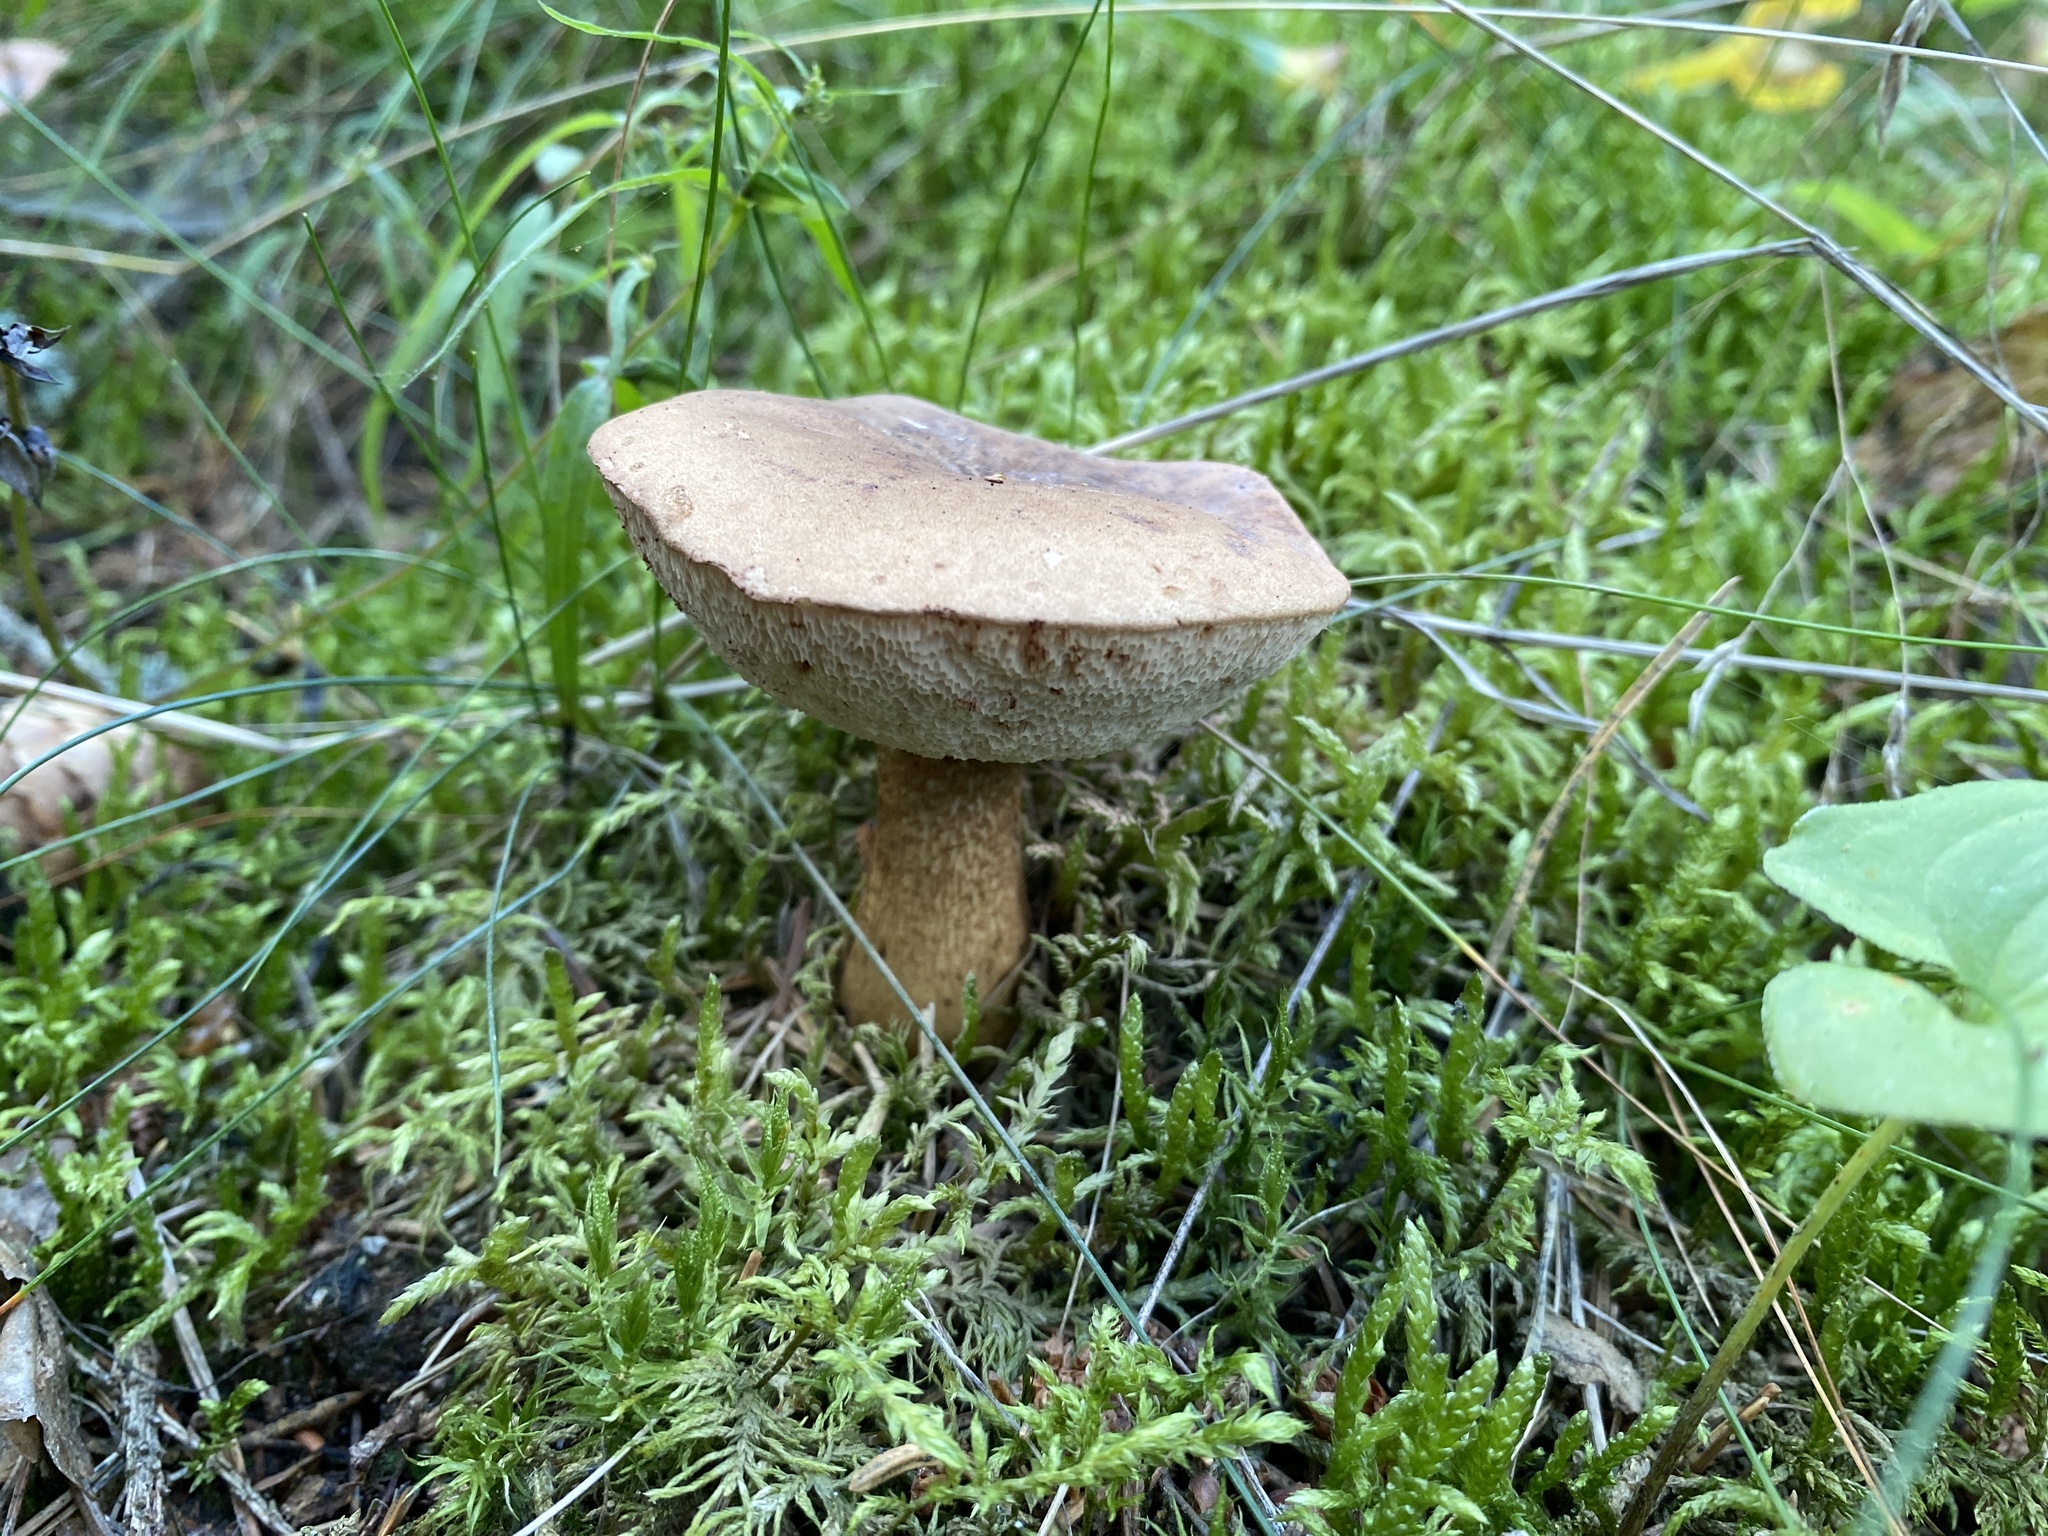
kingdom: Fungi
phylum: Basidiomycota
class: Agaricomycetes
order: Boletales
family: Boletaceae
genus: Tylopilus
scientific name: Tylopilus felleus
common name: Bitter bolete
